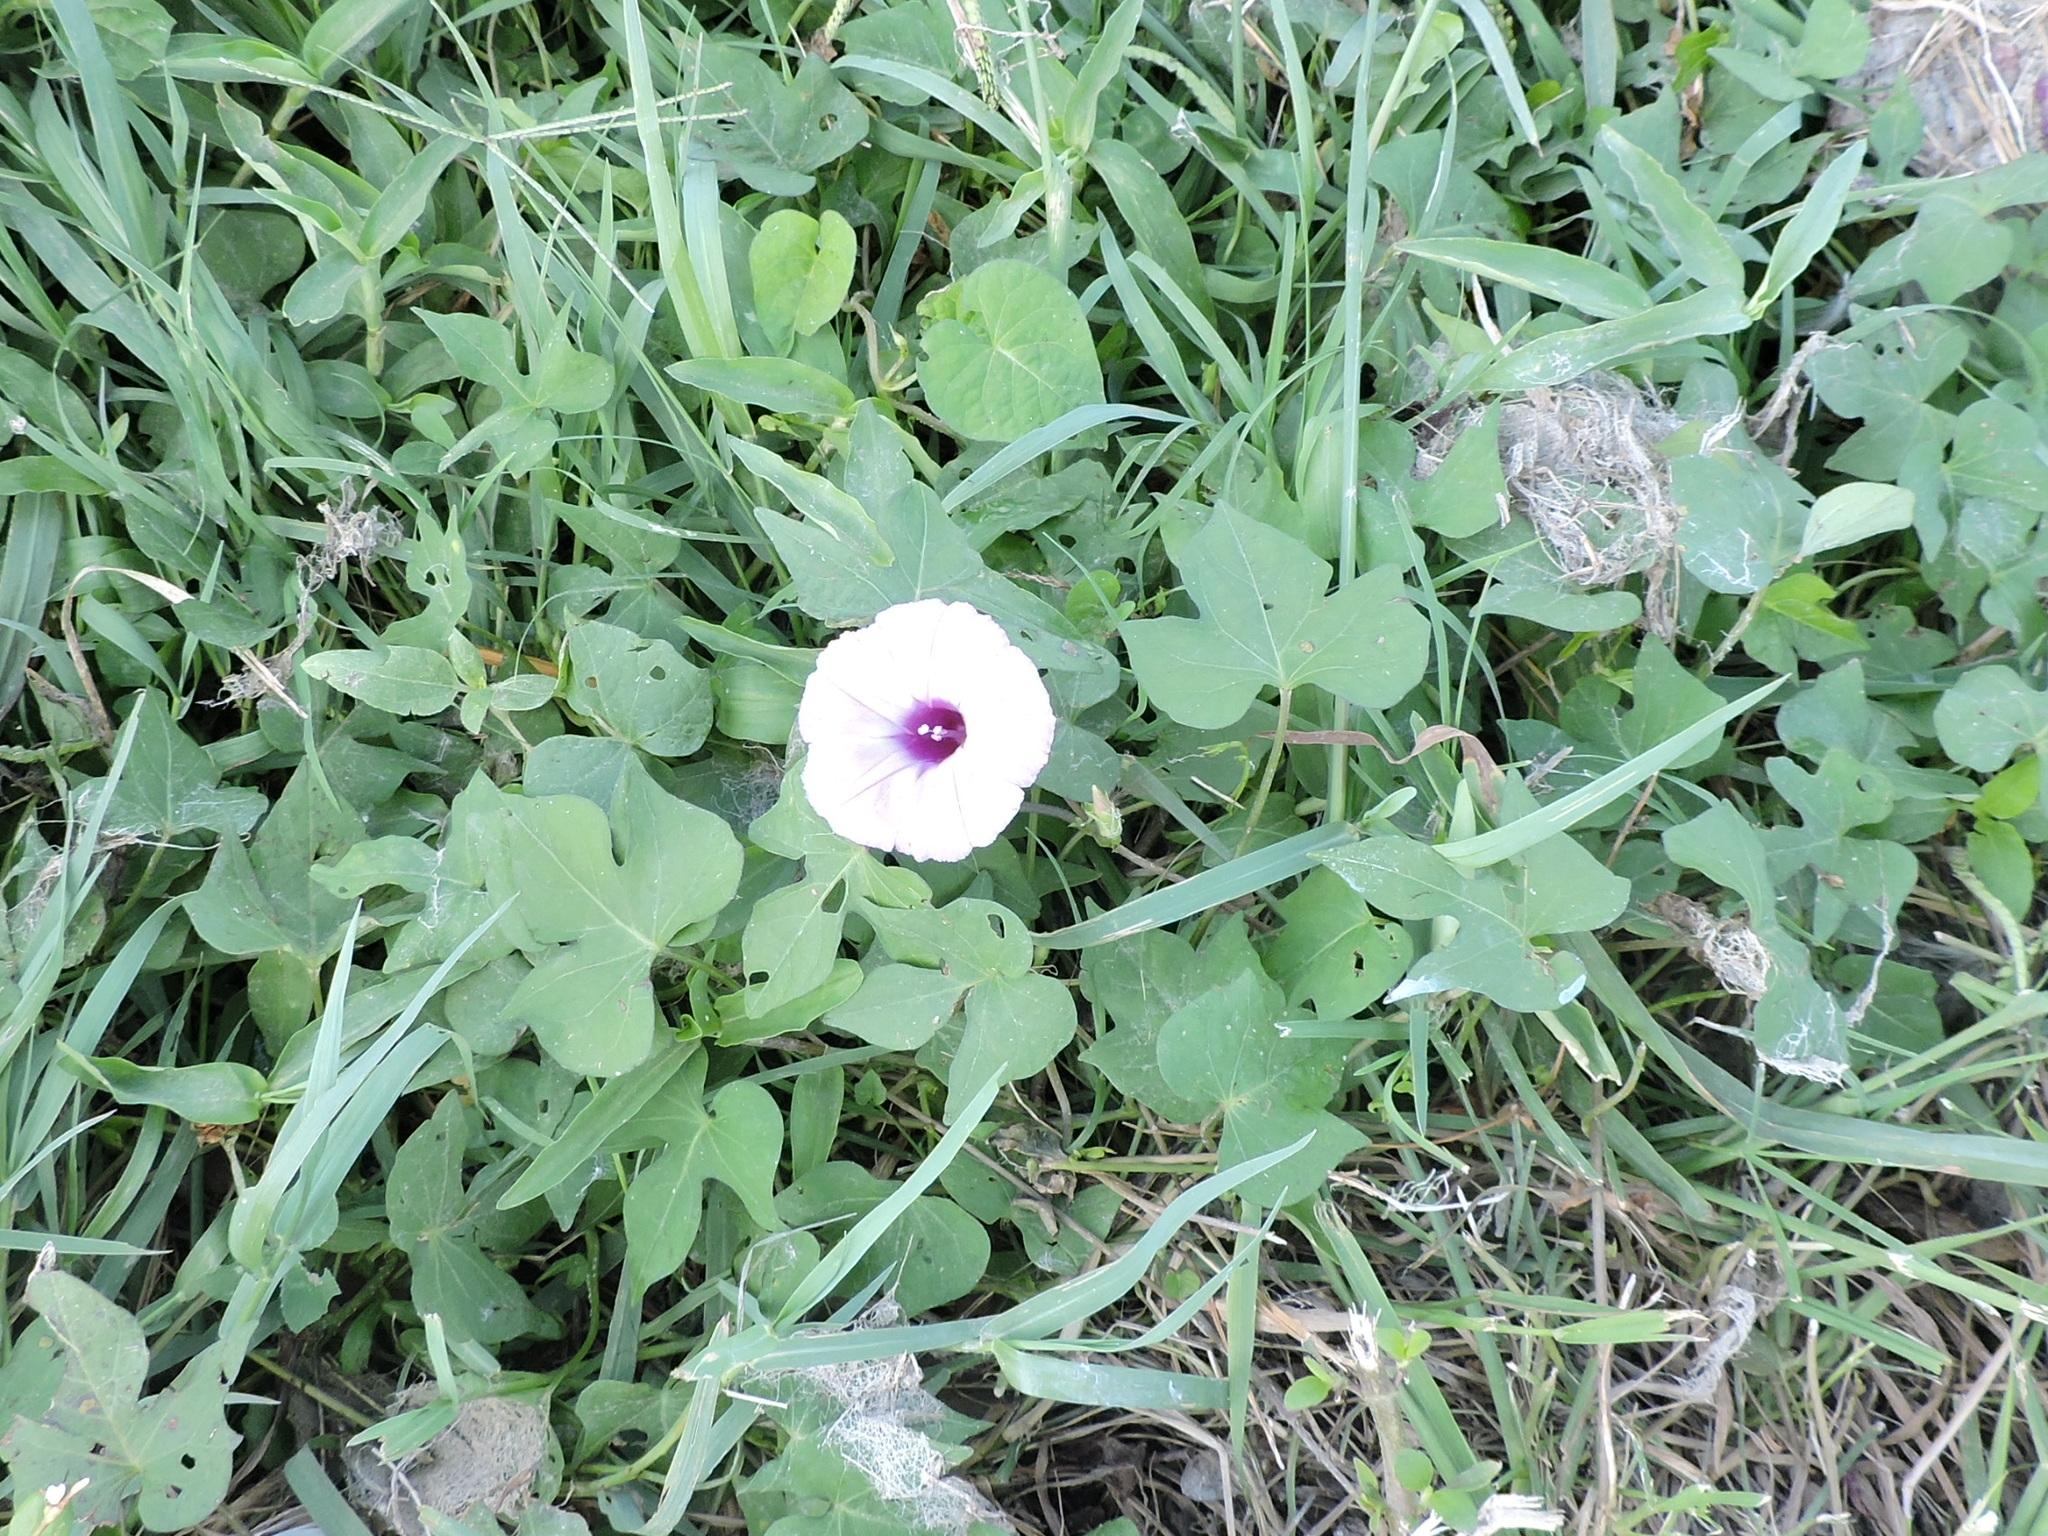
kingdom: Plantae
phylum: Tracheophyta
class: Magnoliopsida
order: Solanales
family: Convolvulaceae
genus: Ipomoea
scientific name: Ipomoea cordatotriloba
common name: Cotton morning glory
